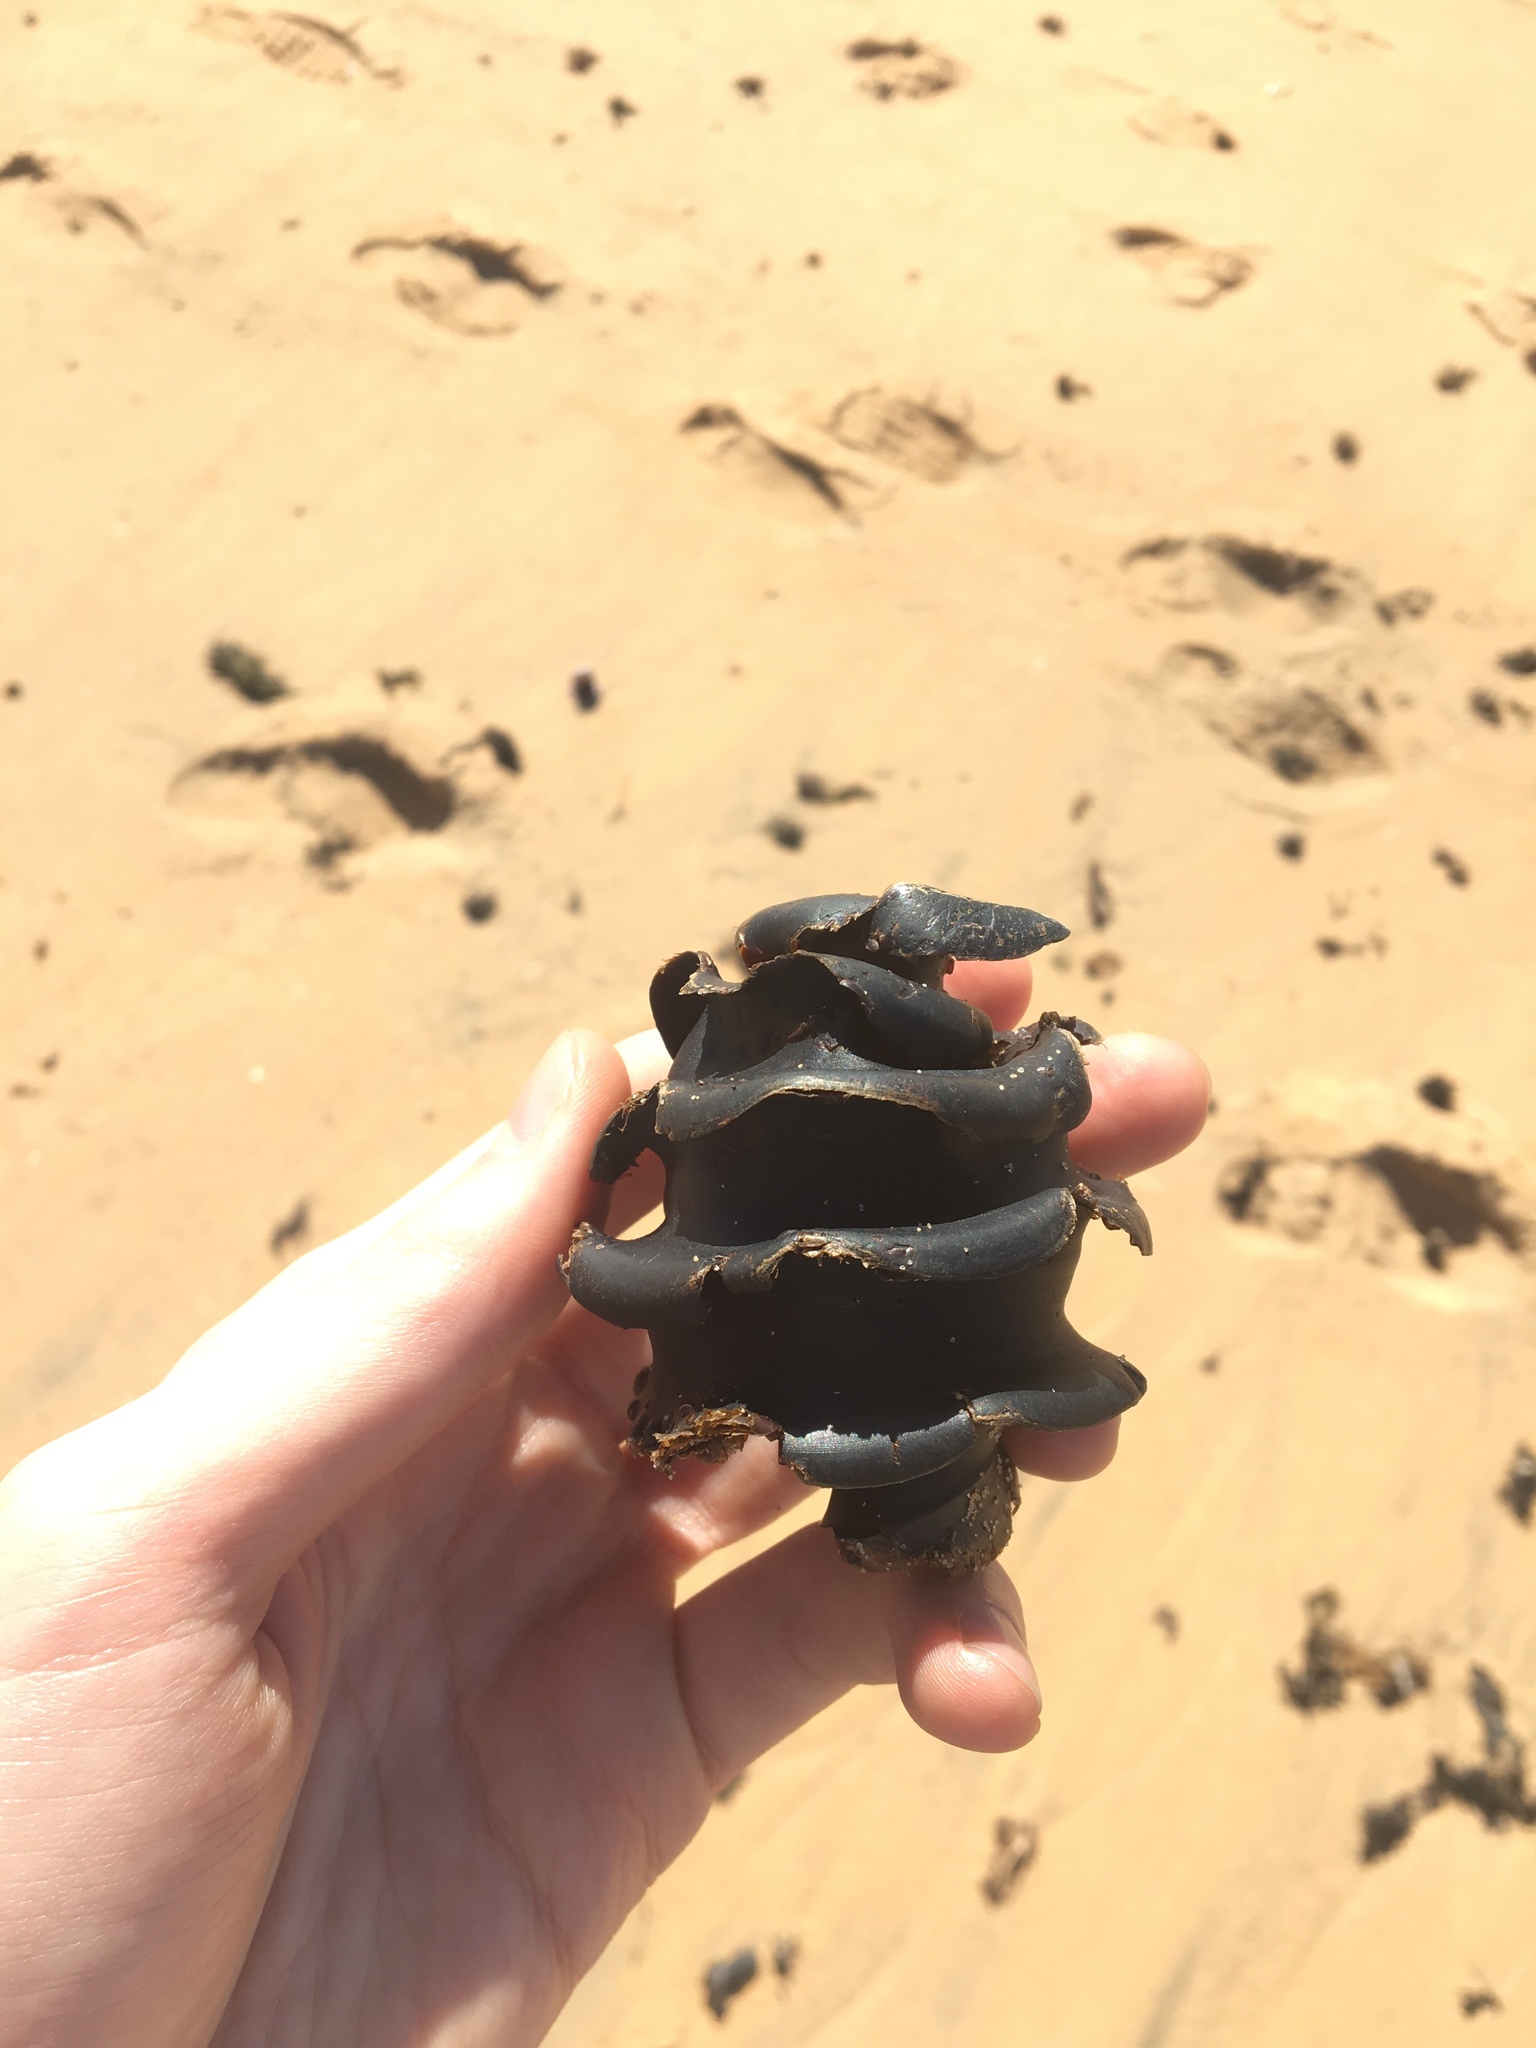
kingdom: Animalia
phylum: Chordata
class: Elasmobranchii
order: Heterodontiformes
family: Heterodontidae
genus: Heterodontus
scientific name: Heterodontus galeatus
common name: Crested bullhead shark
